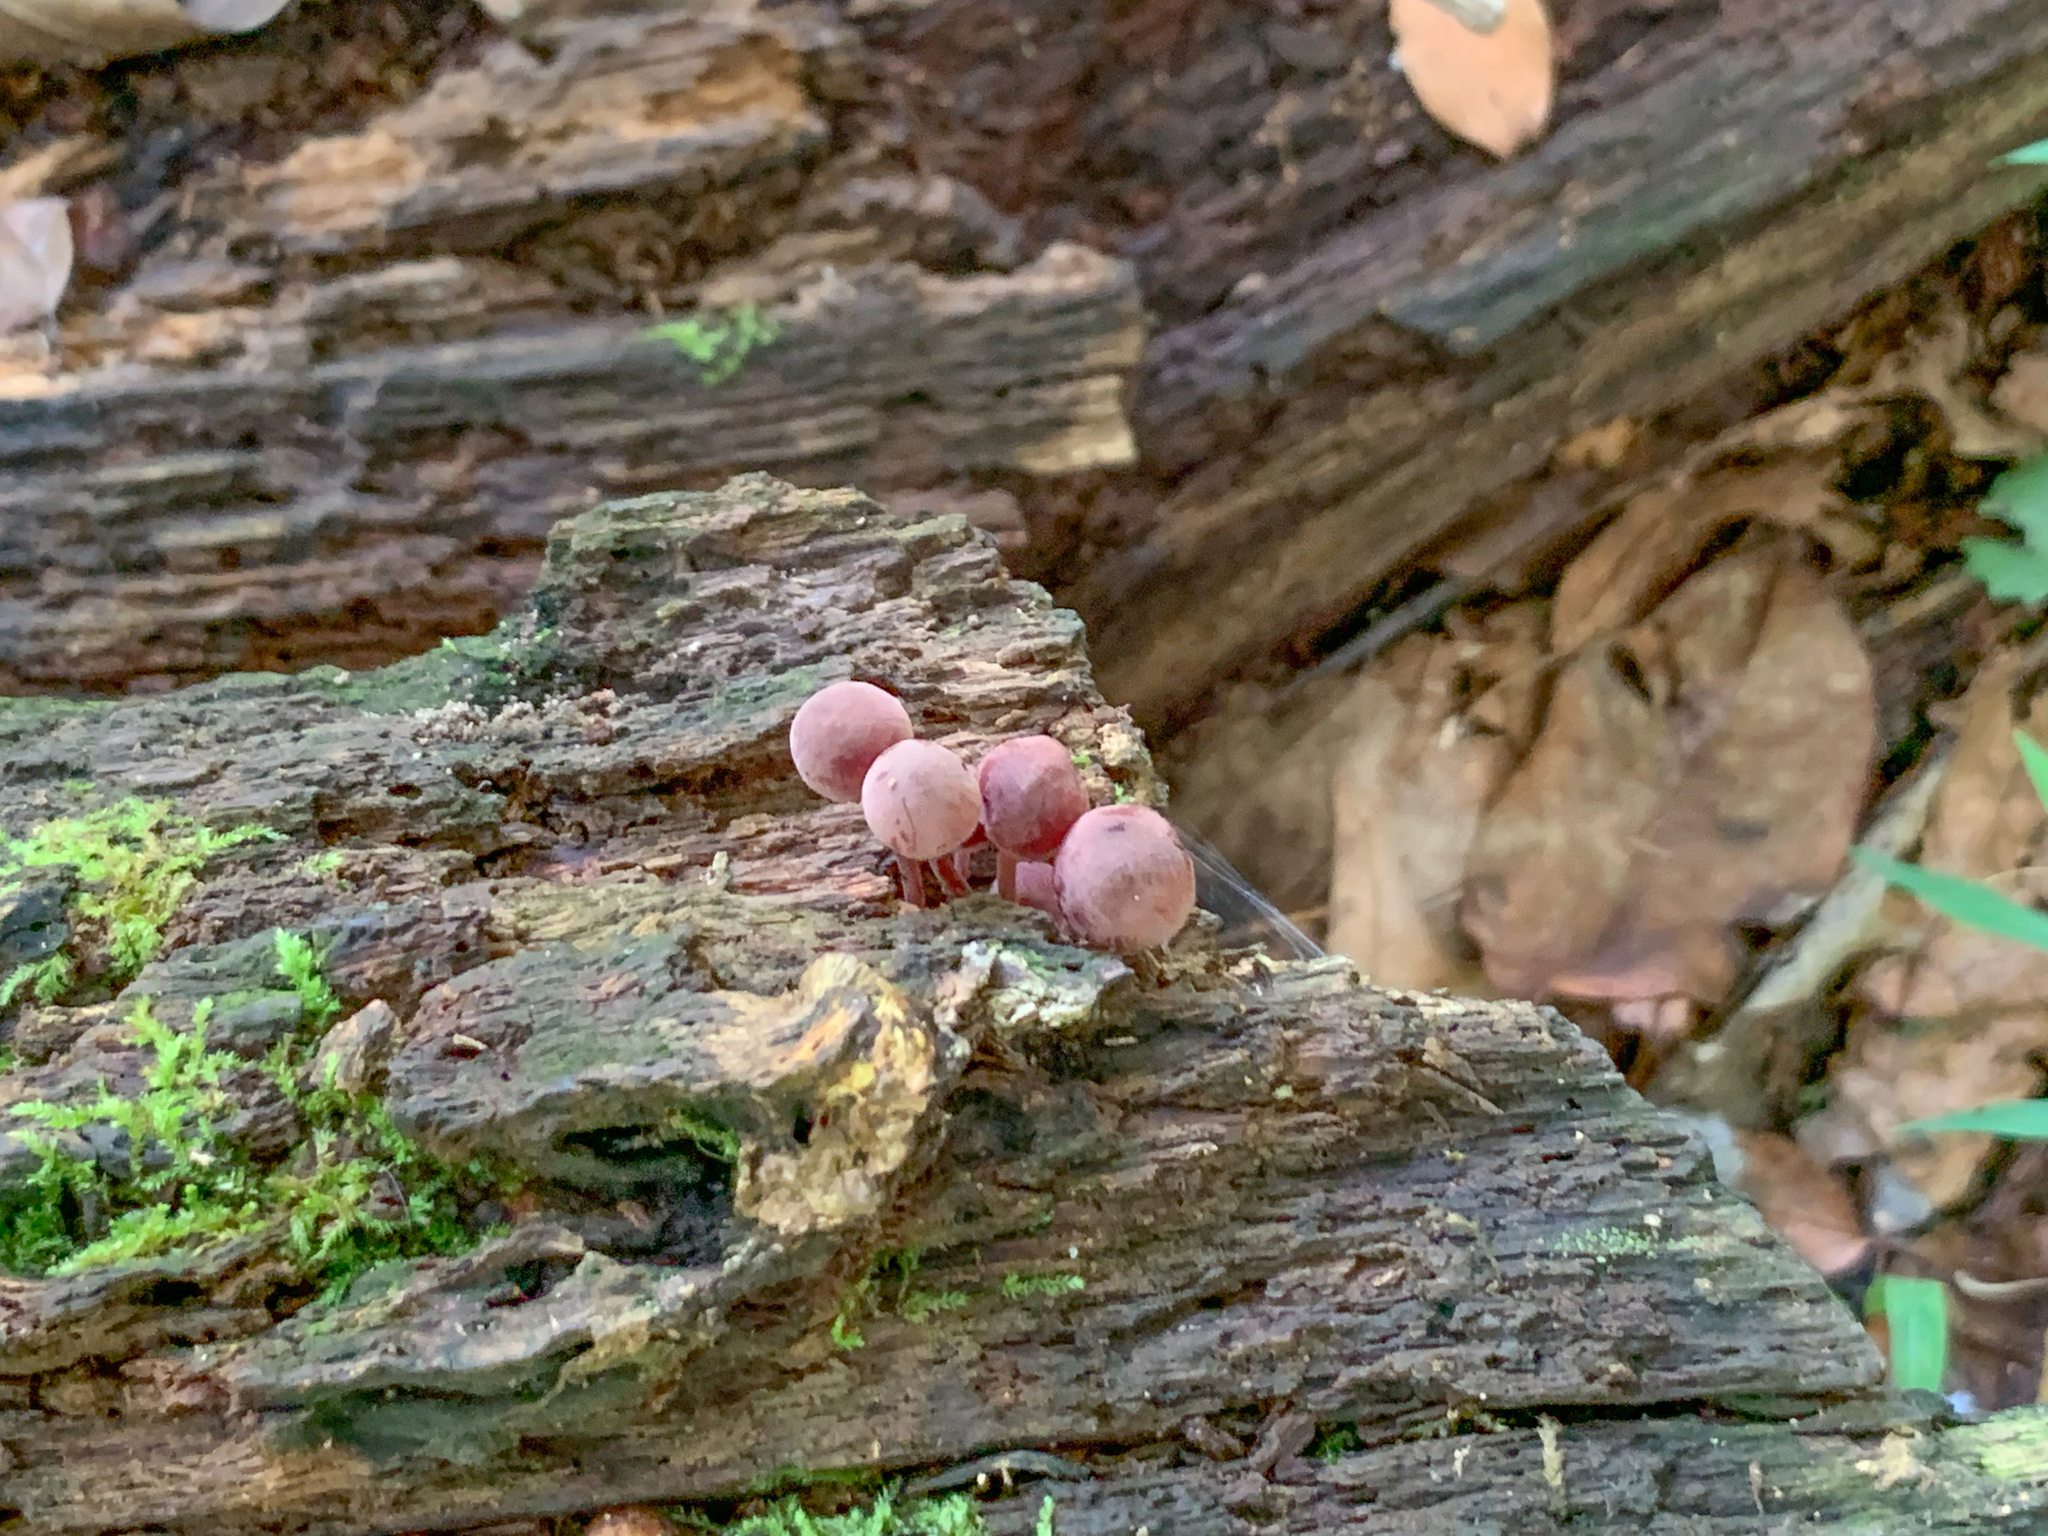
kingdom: Fungi
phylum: Basidiomycota
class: Agaricomycetes
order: Agaricales
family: Mycenaceae
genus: Mycena
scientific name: Mycena haematopus
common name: Burgundydrop bonnet
